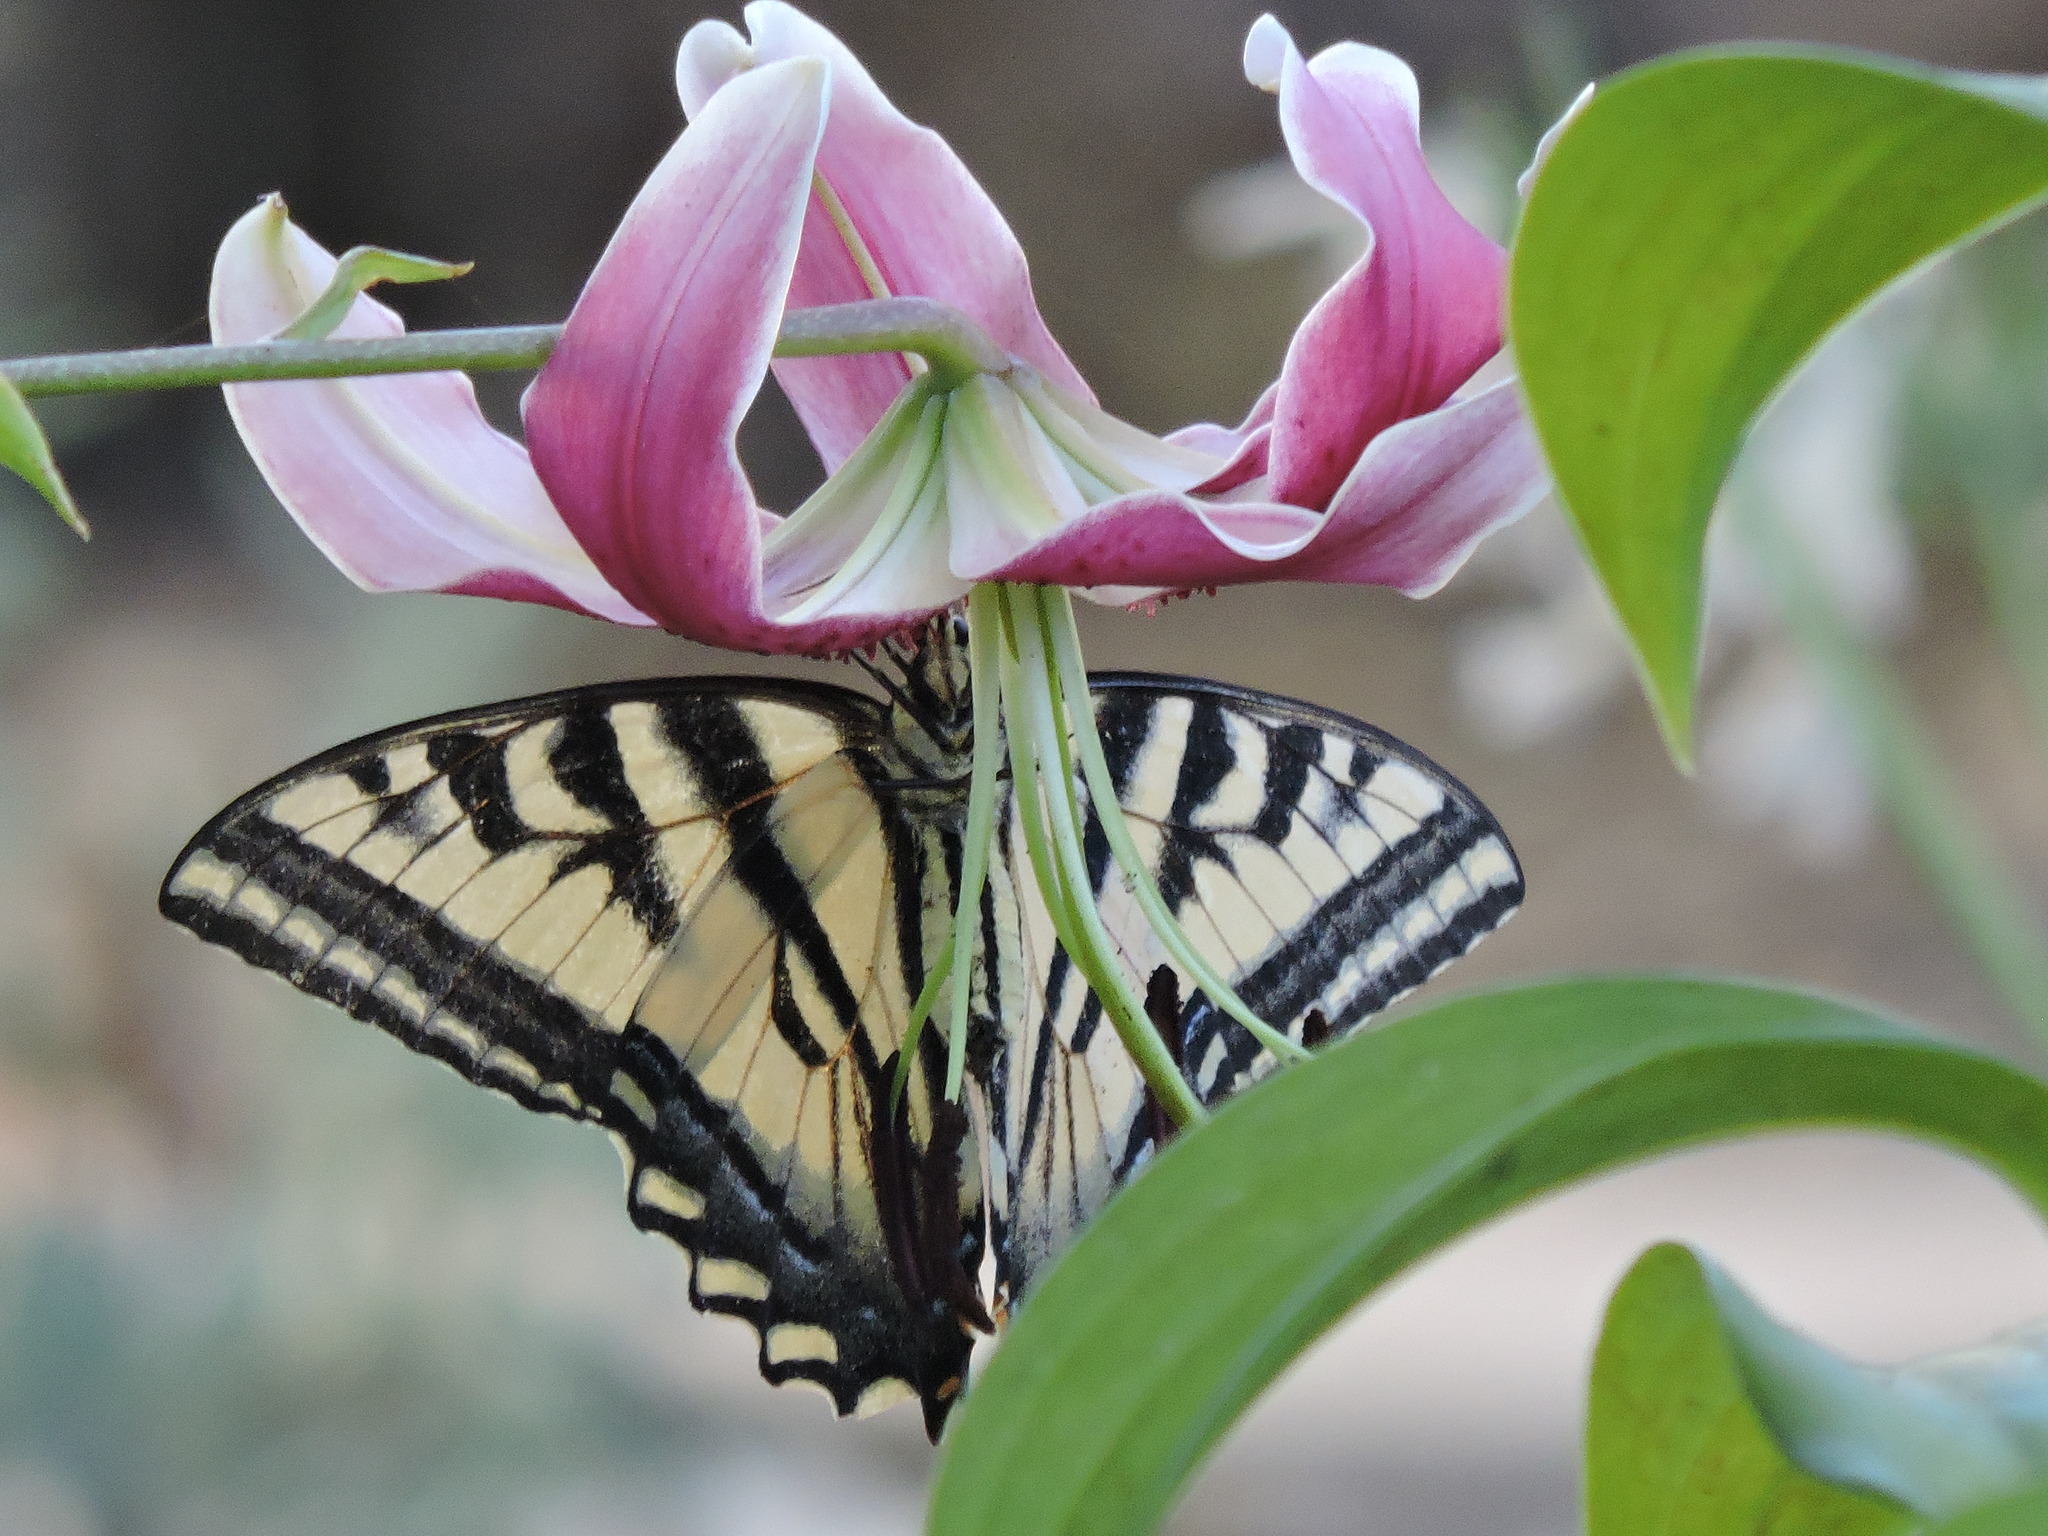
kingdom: Animalia
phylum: Arthropoda
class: Insecta
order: Lepidoptera
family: Papilionidae
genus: Papilio
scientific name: Papilio rutulus
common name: Western tiger swallowtail
